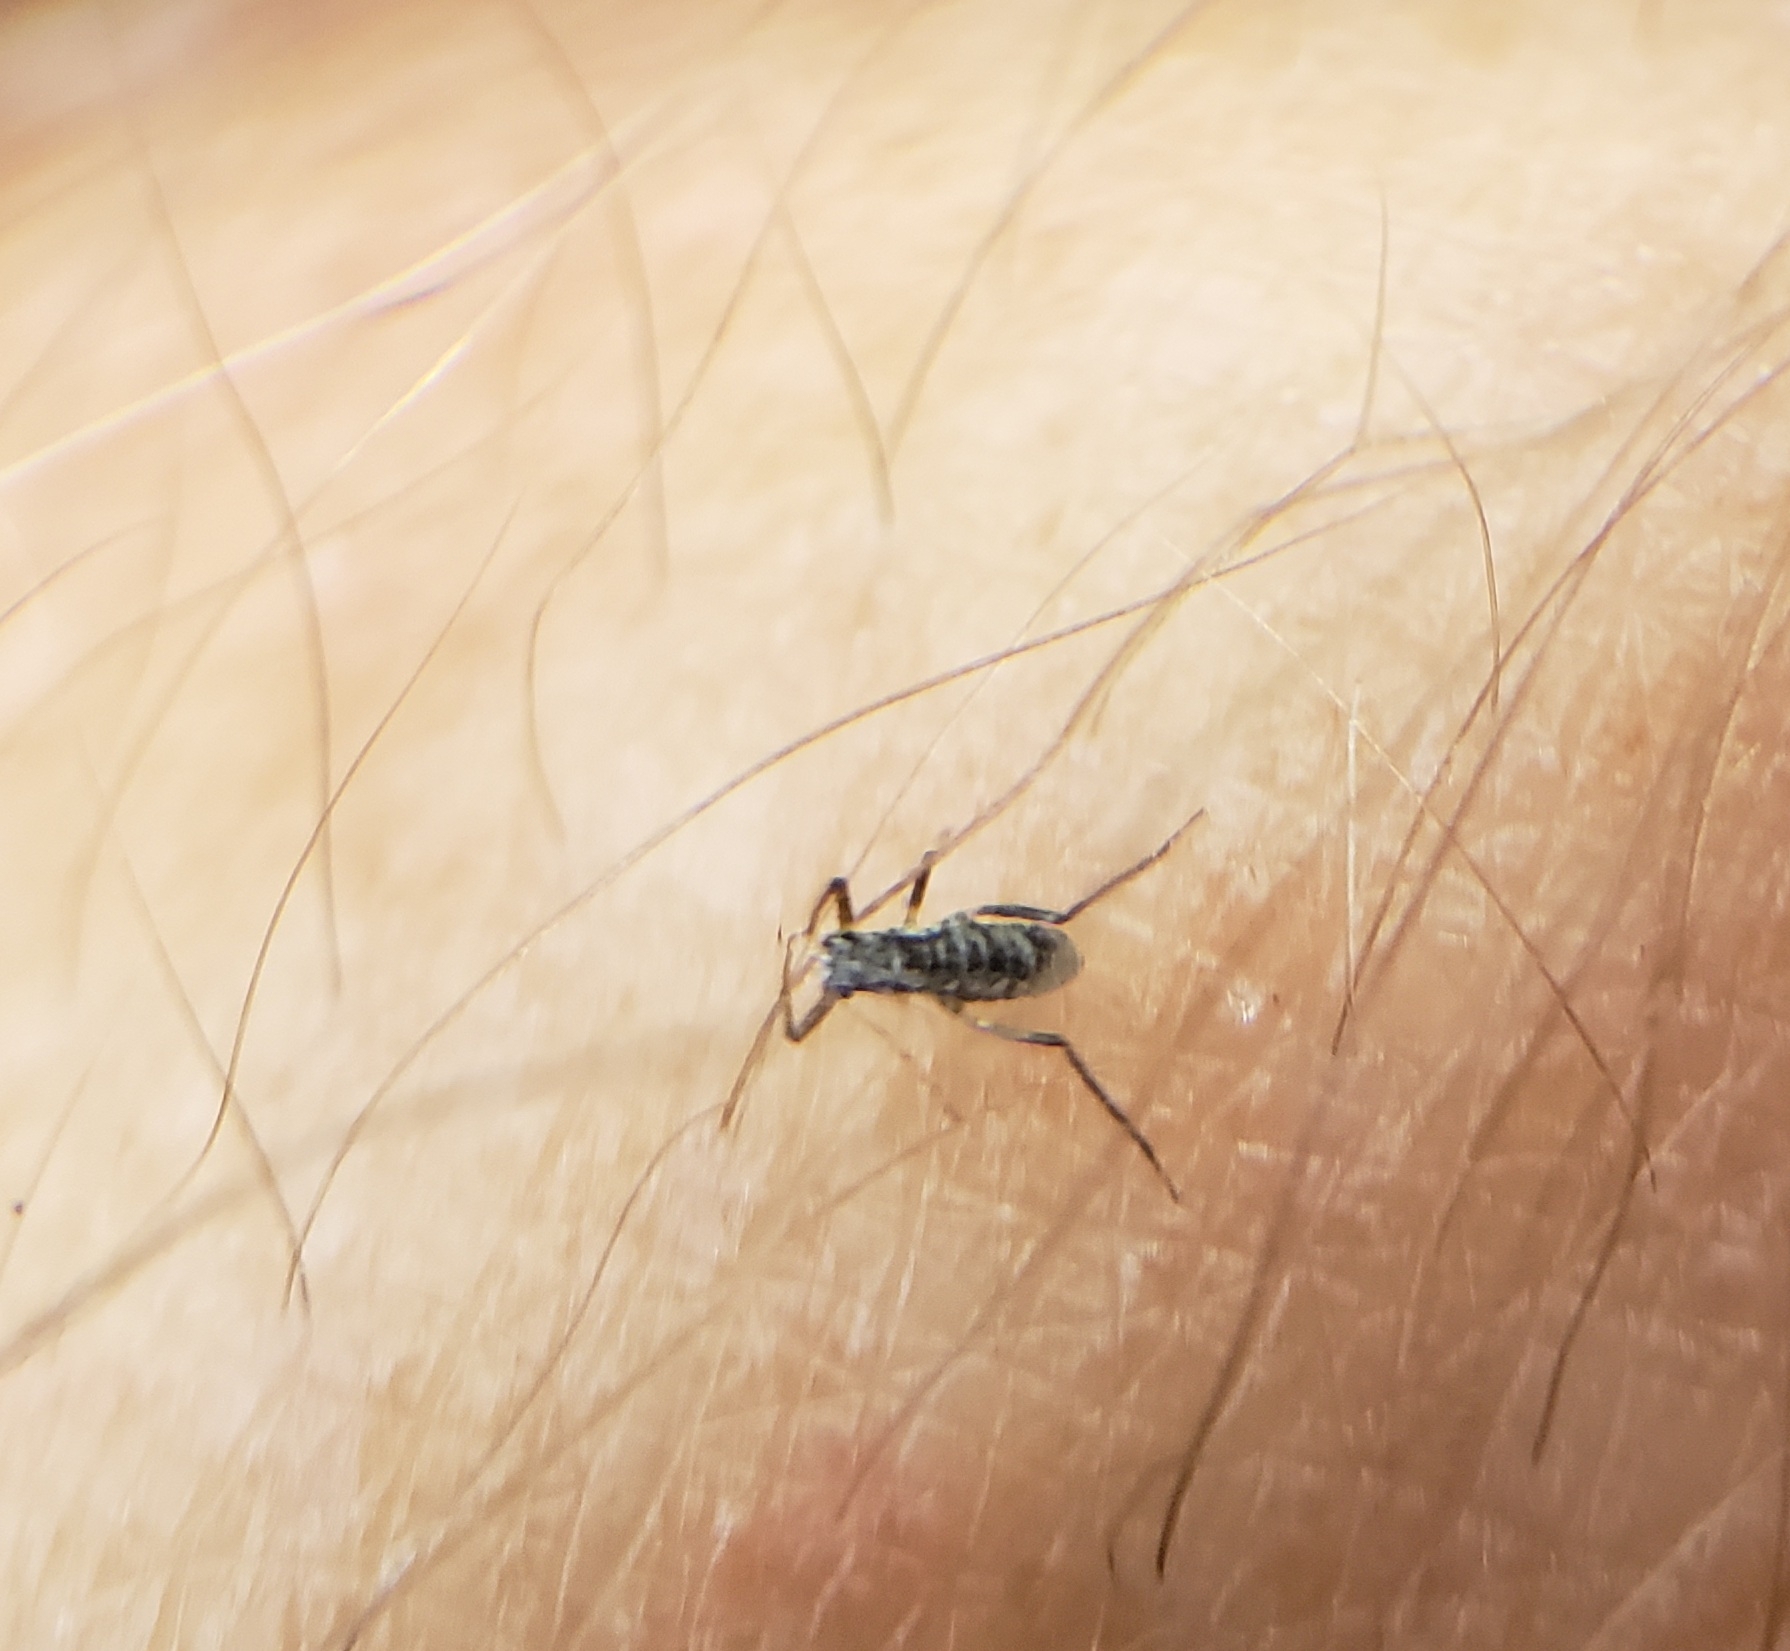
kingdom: Animalia
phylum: Arthropoda
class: Insecta
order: Hemiptera
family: Aphididae
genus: Eulachnus
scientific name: Eulachnus rileyi
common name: Active gray pine needle aphid
